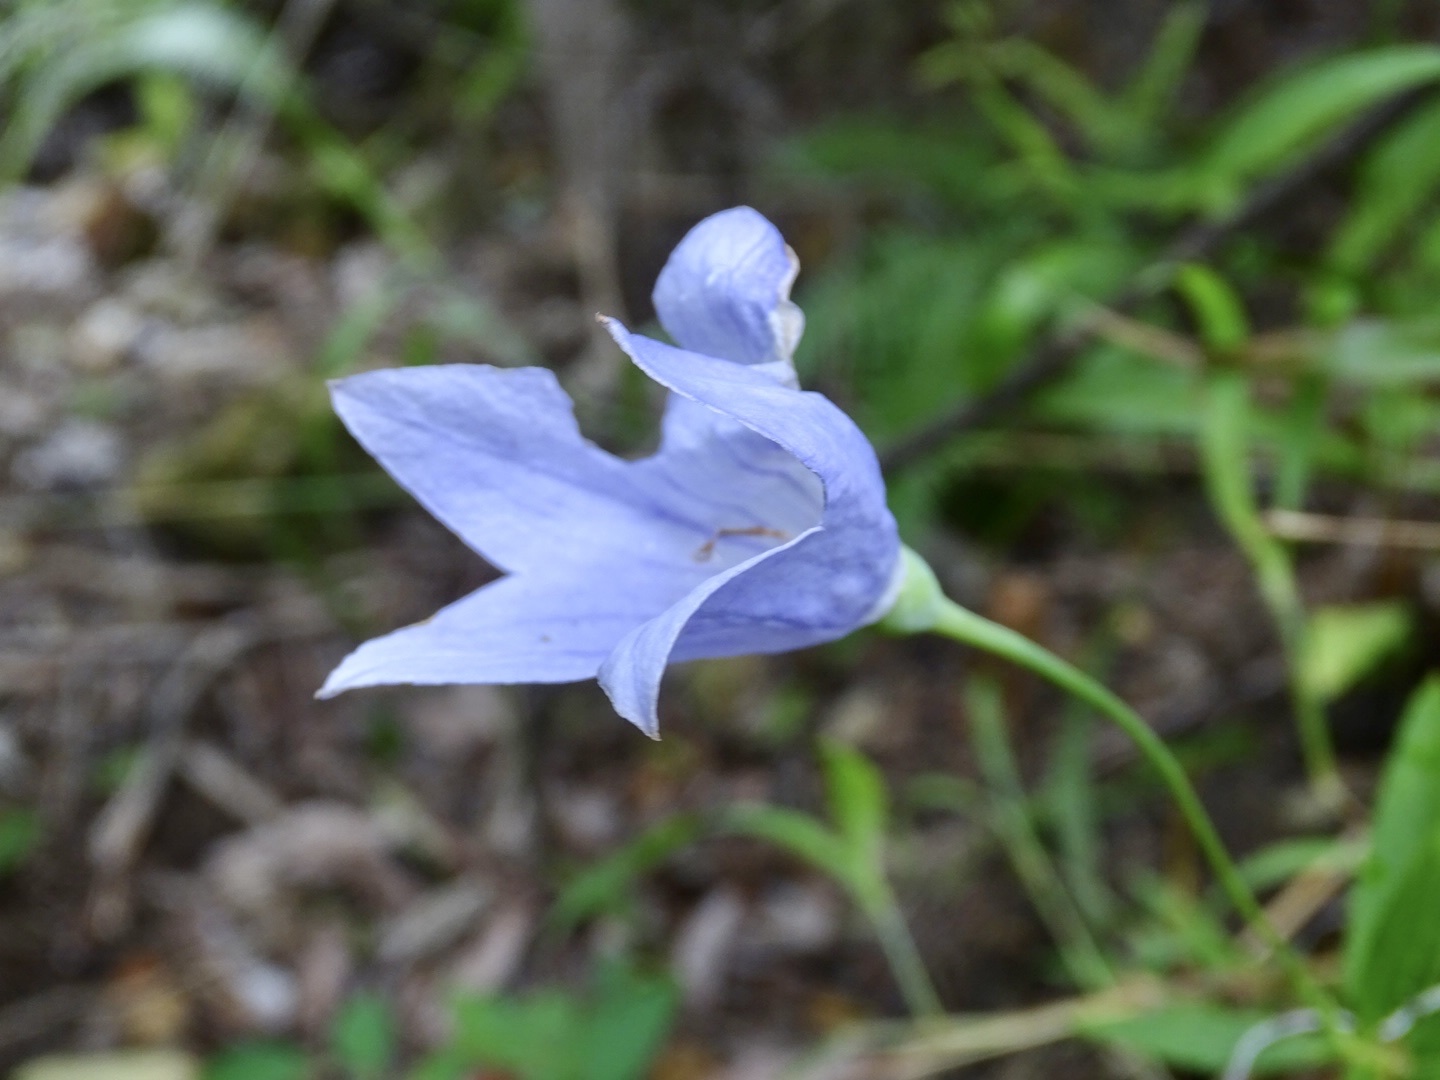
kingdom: Plantae
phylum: Tracheophyta
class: Magnoliopsida
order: Asterales
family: Campanulaceae
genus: Platycodon
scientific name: Platycodon grandiflorus
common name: Balloon-flower
